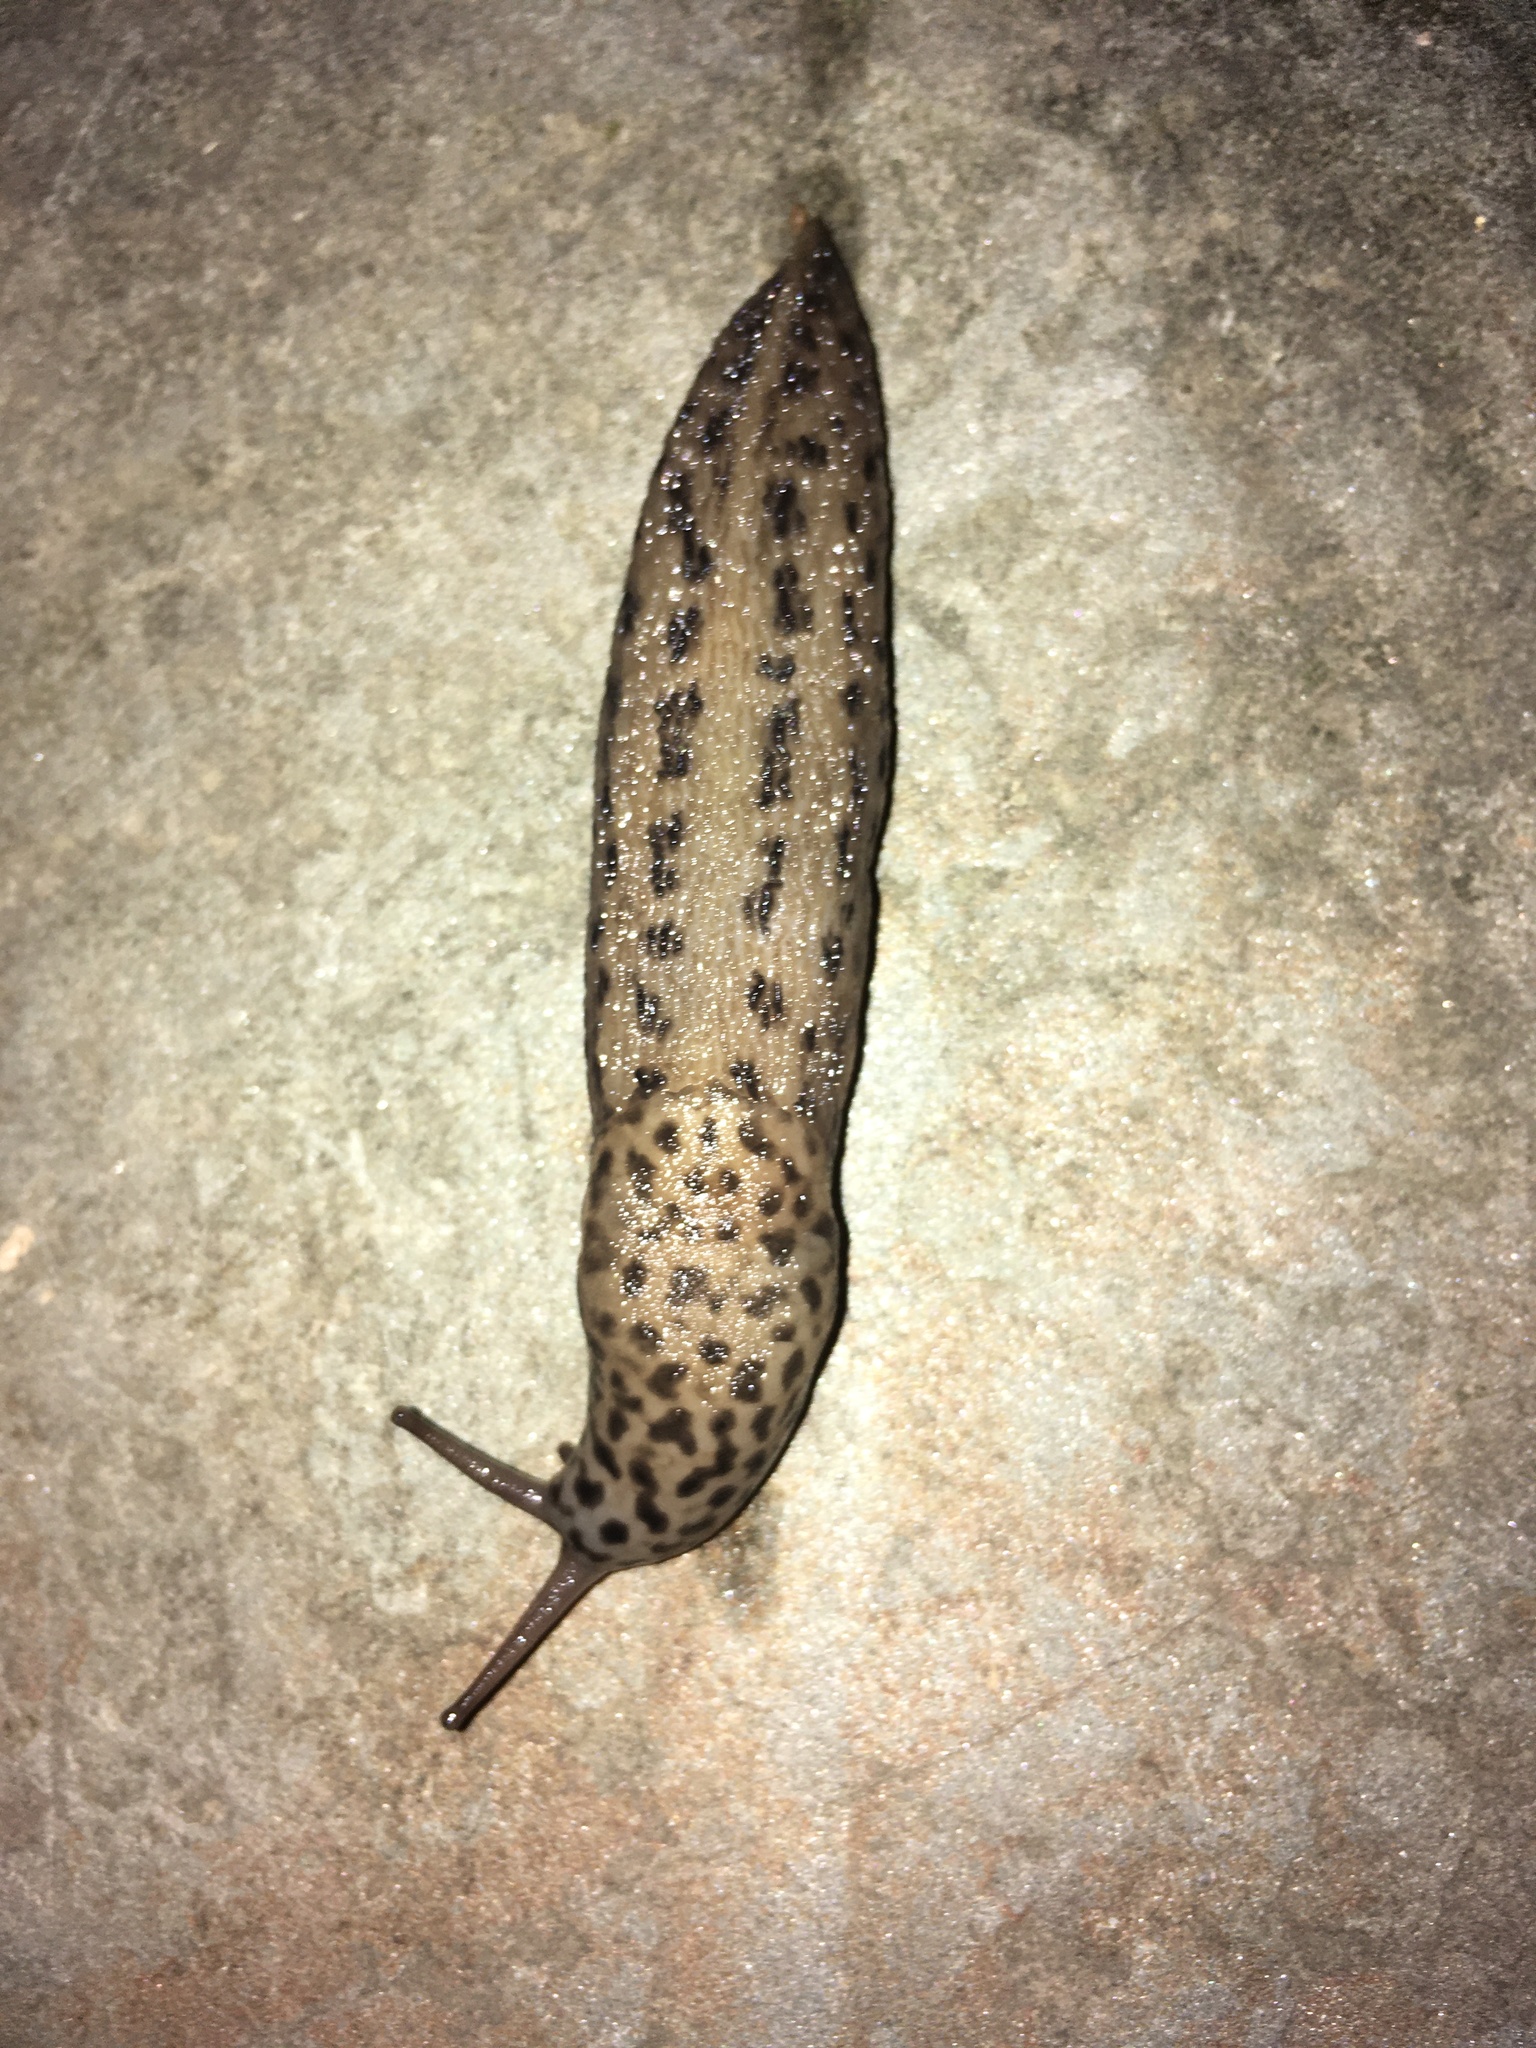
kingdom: Animalia
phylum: Mollusca
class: Gastropoda
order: Stylommatophora
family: Limacidae
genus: Limax
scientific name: Limax maximus
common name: Great grey slug
